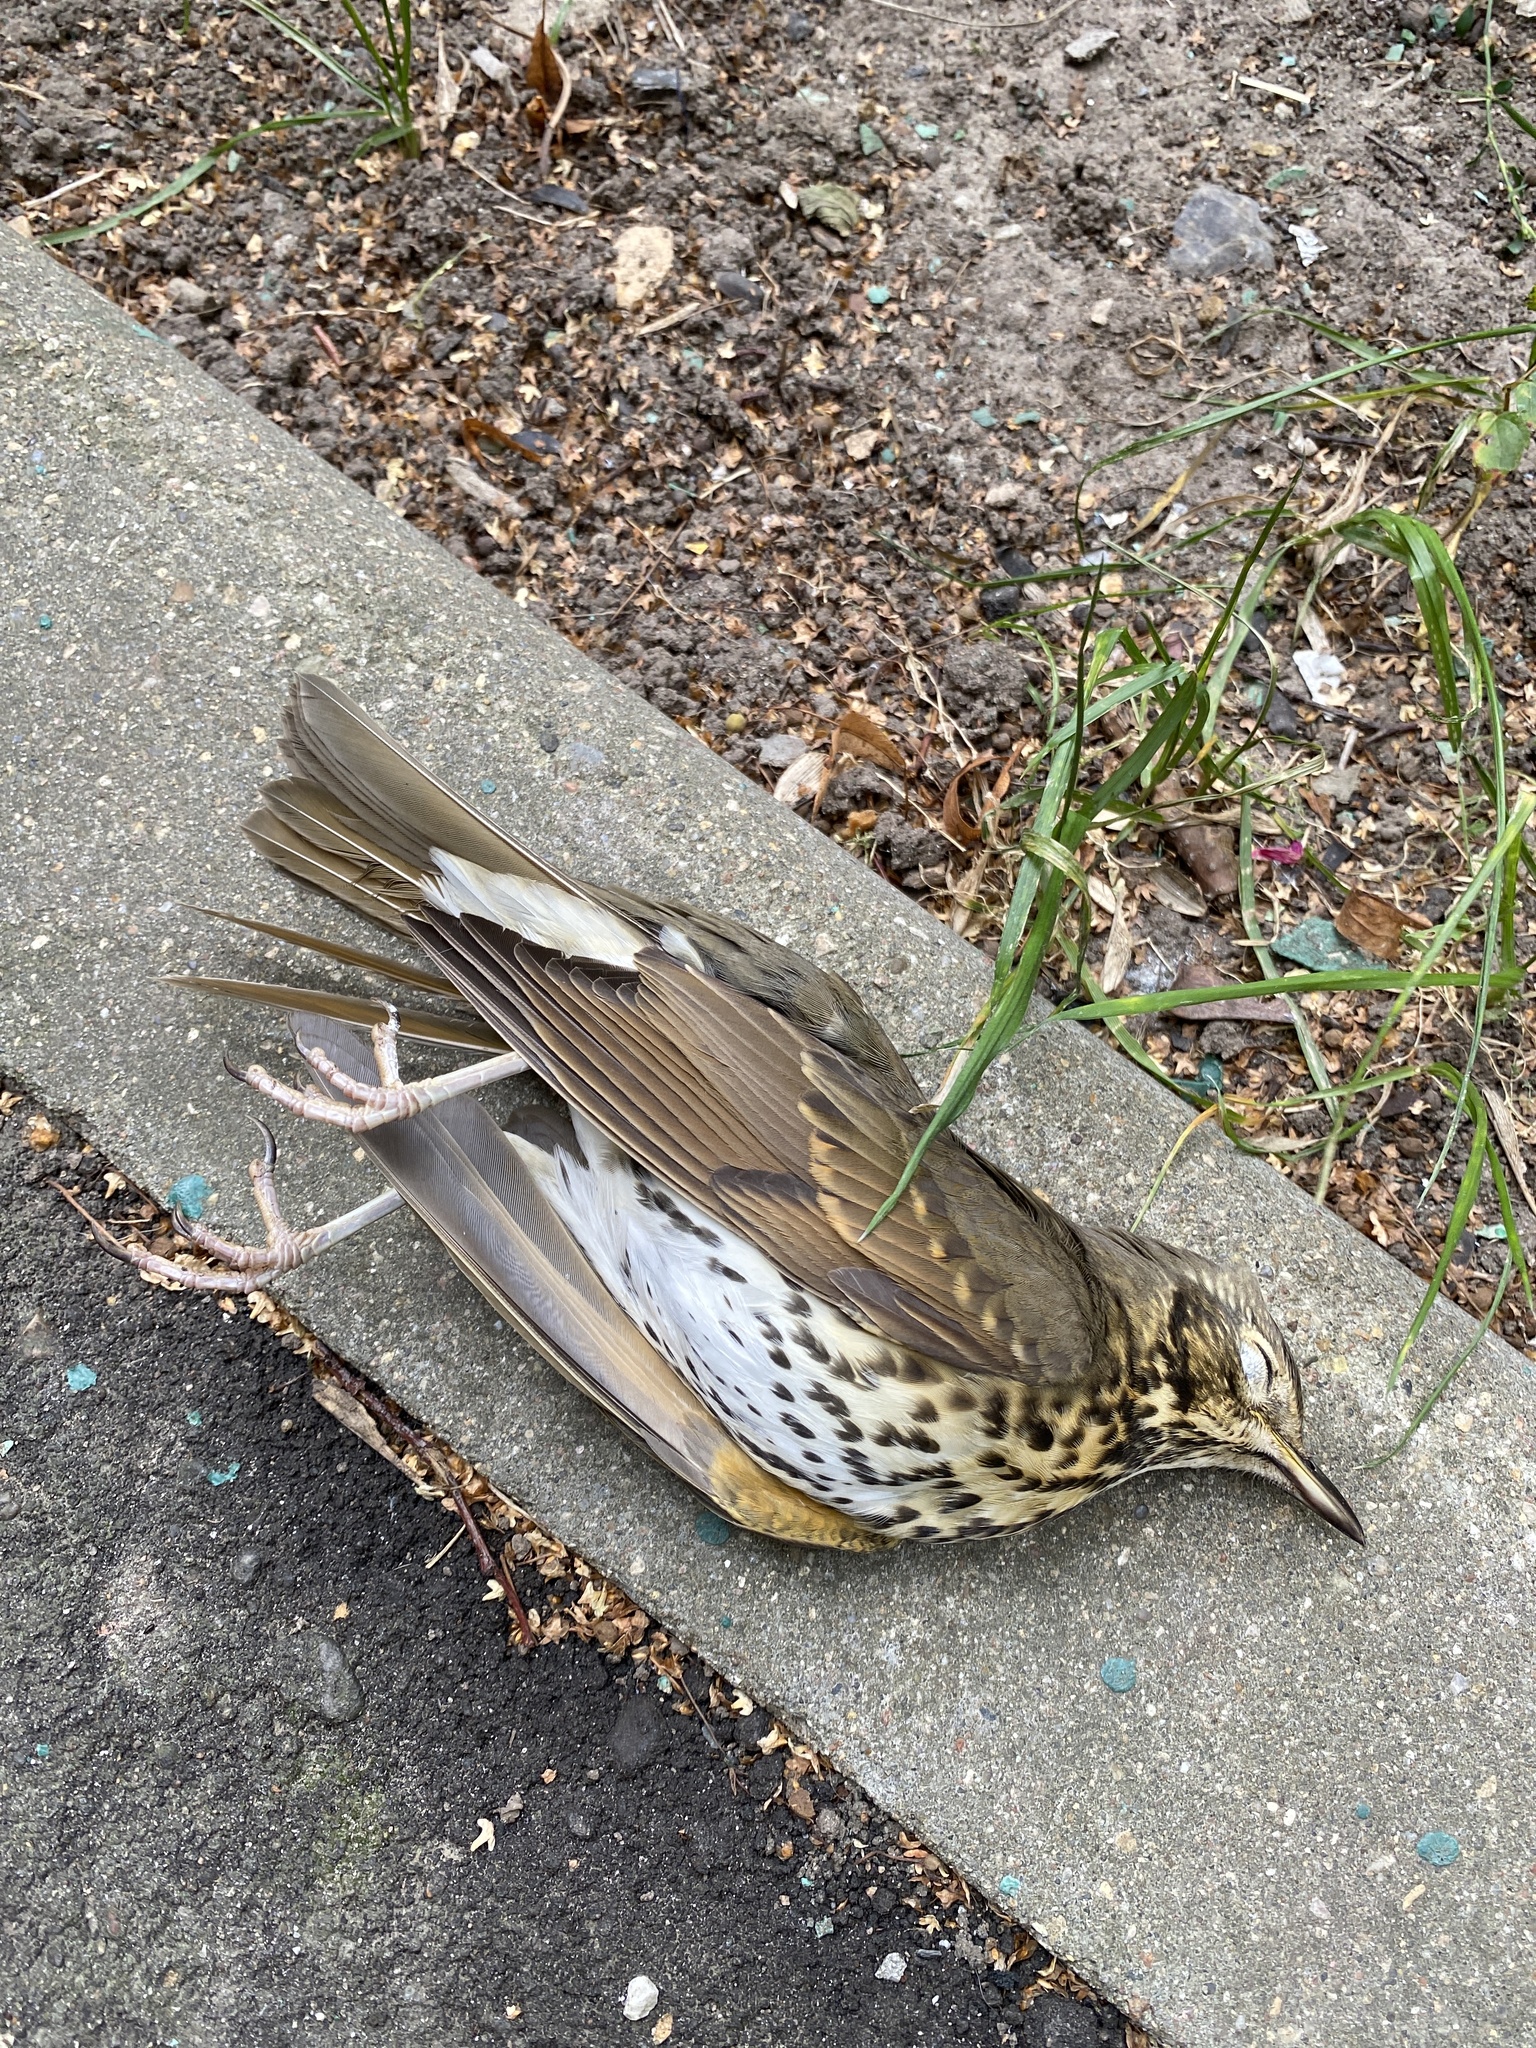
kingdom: Animalia
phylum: Chordata
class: Aves
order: Passeriformes
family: Turdidae
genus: Turdus
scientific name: Turdus philomelos
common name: Song thrush
